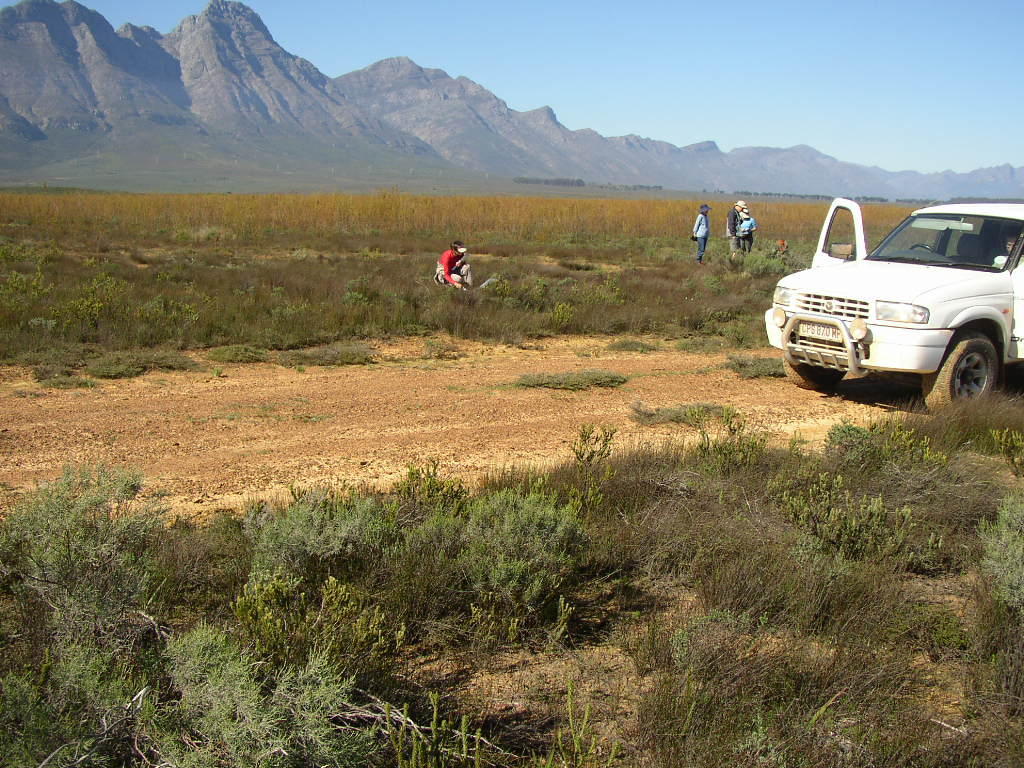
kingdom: Plantae
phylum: Tracheophyta
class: Magnoliopsida
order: Proteales
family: Proteaceae
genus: Leucadendron
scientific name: Leucadendron corymbosum
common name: Swartveld conebush
